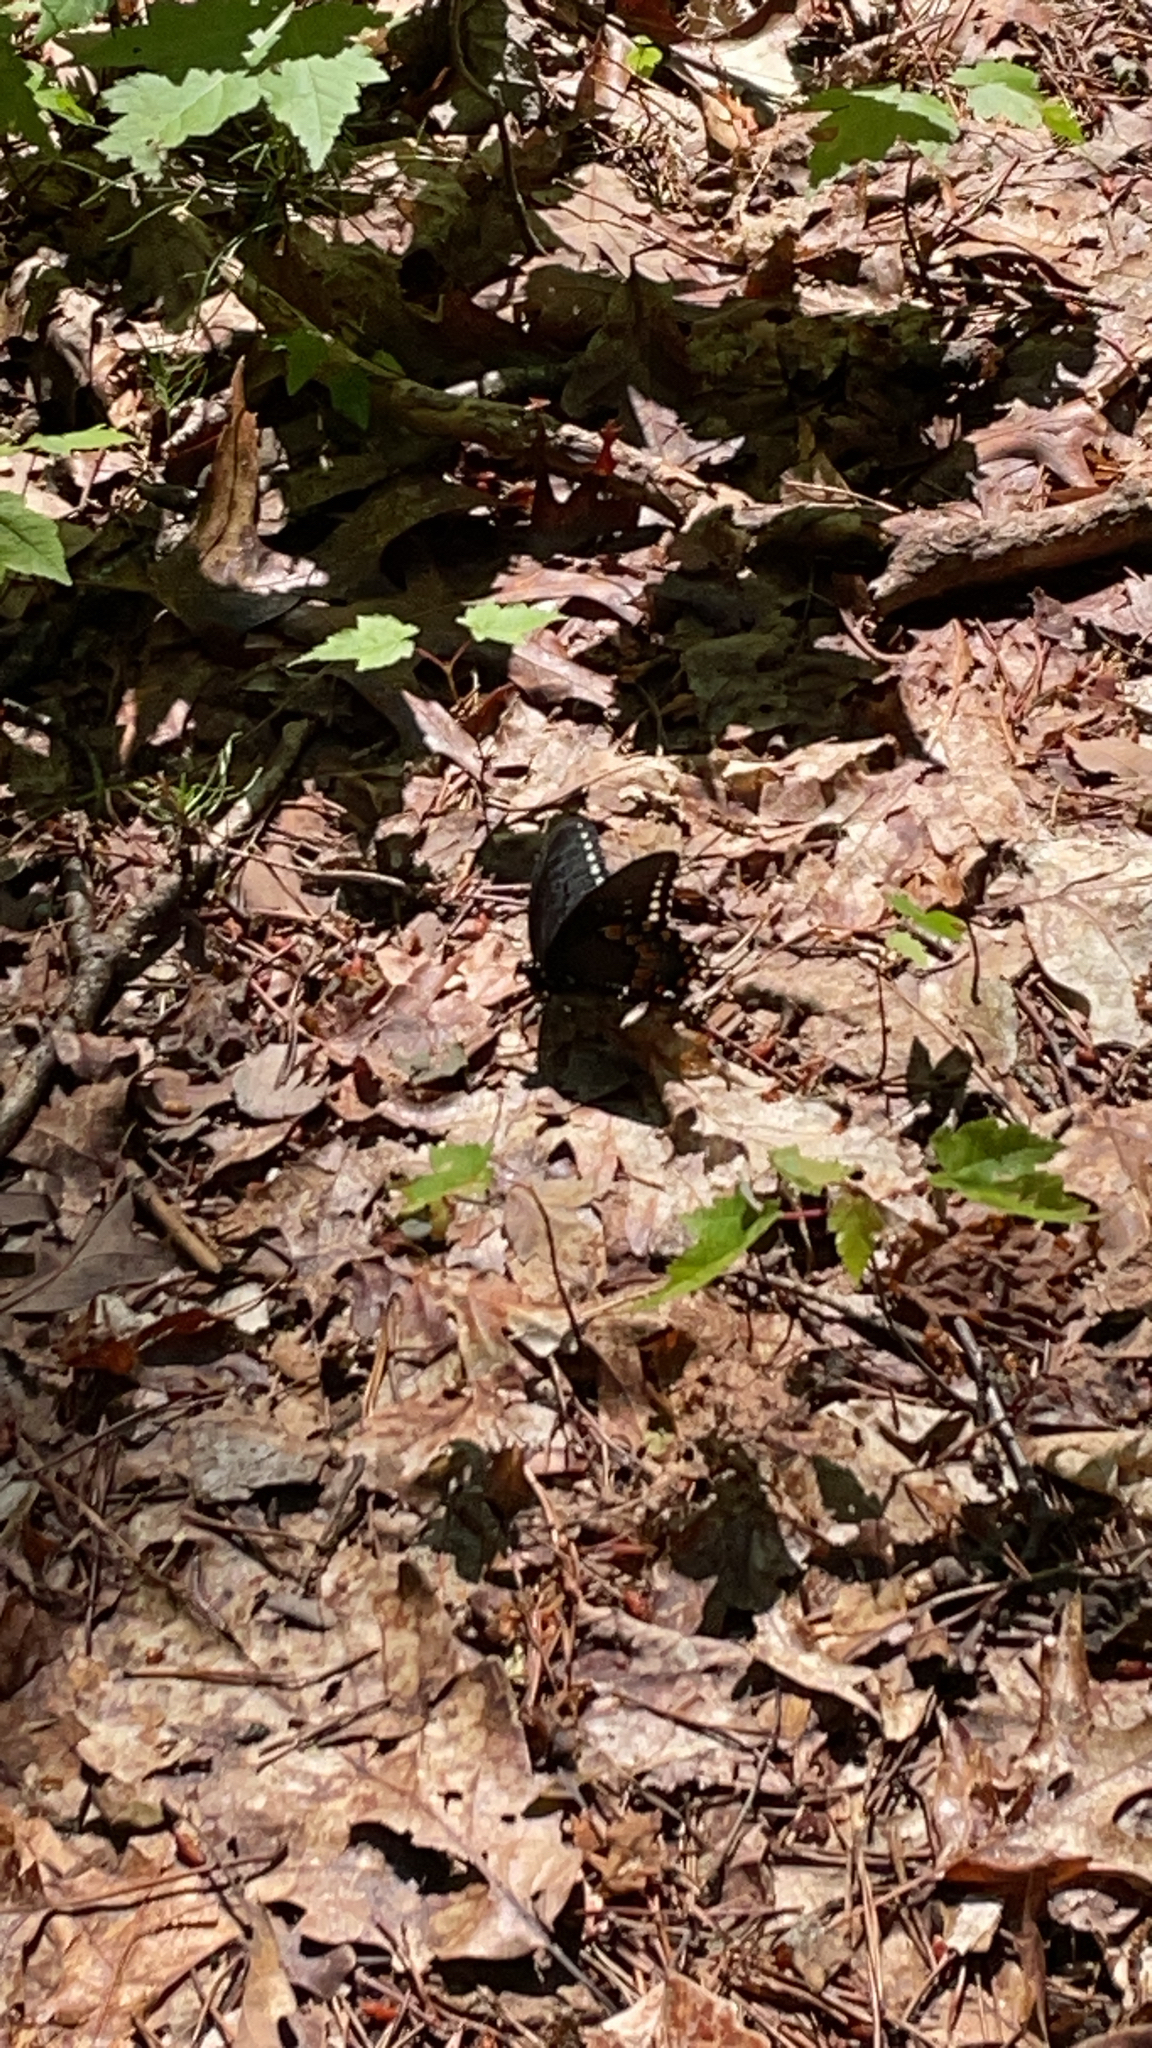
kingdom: Animalia
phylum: Arthropoda
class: Insecta
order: Lepidoptera
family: Papilionidae
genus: Papilio
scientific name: Papilio troilus
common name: Spicebush swallowtail
